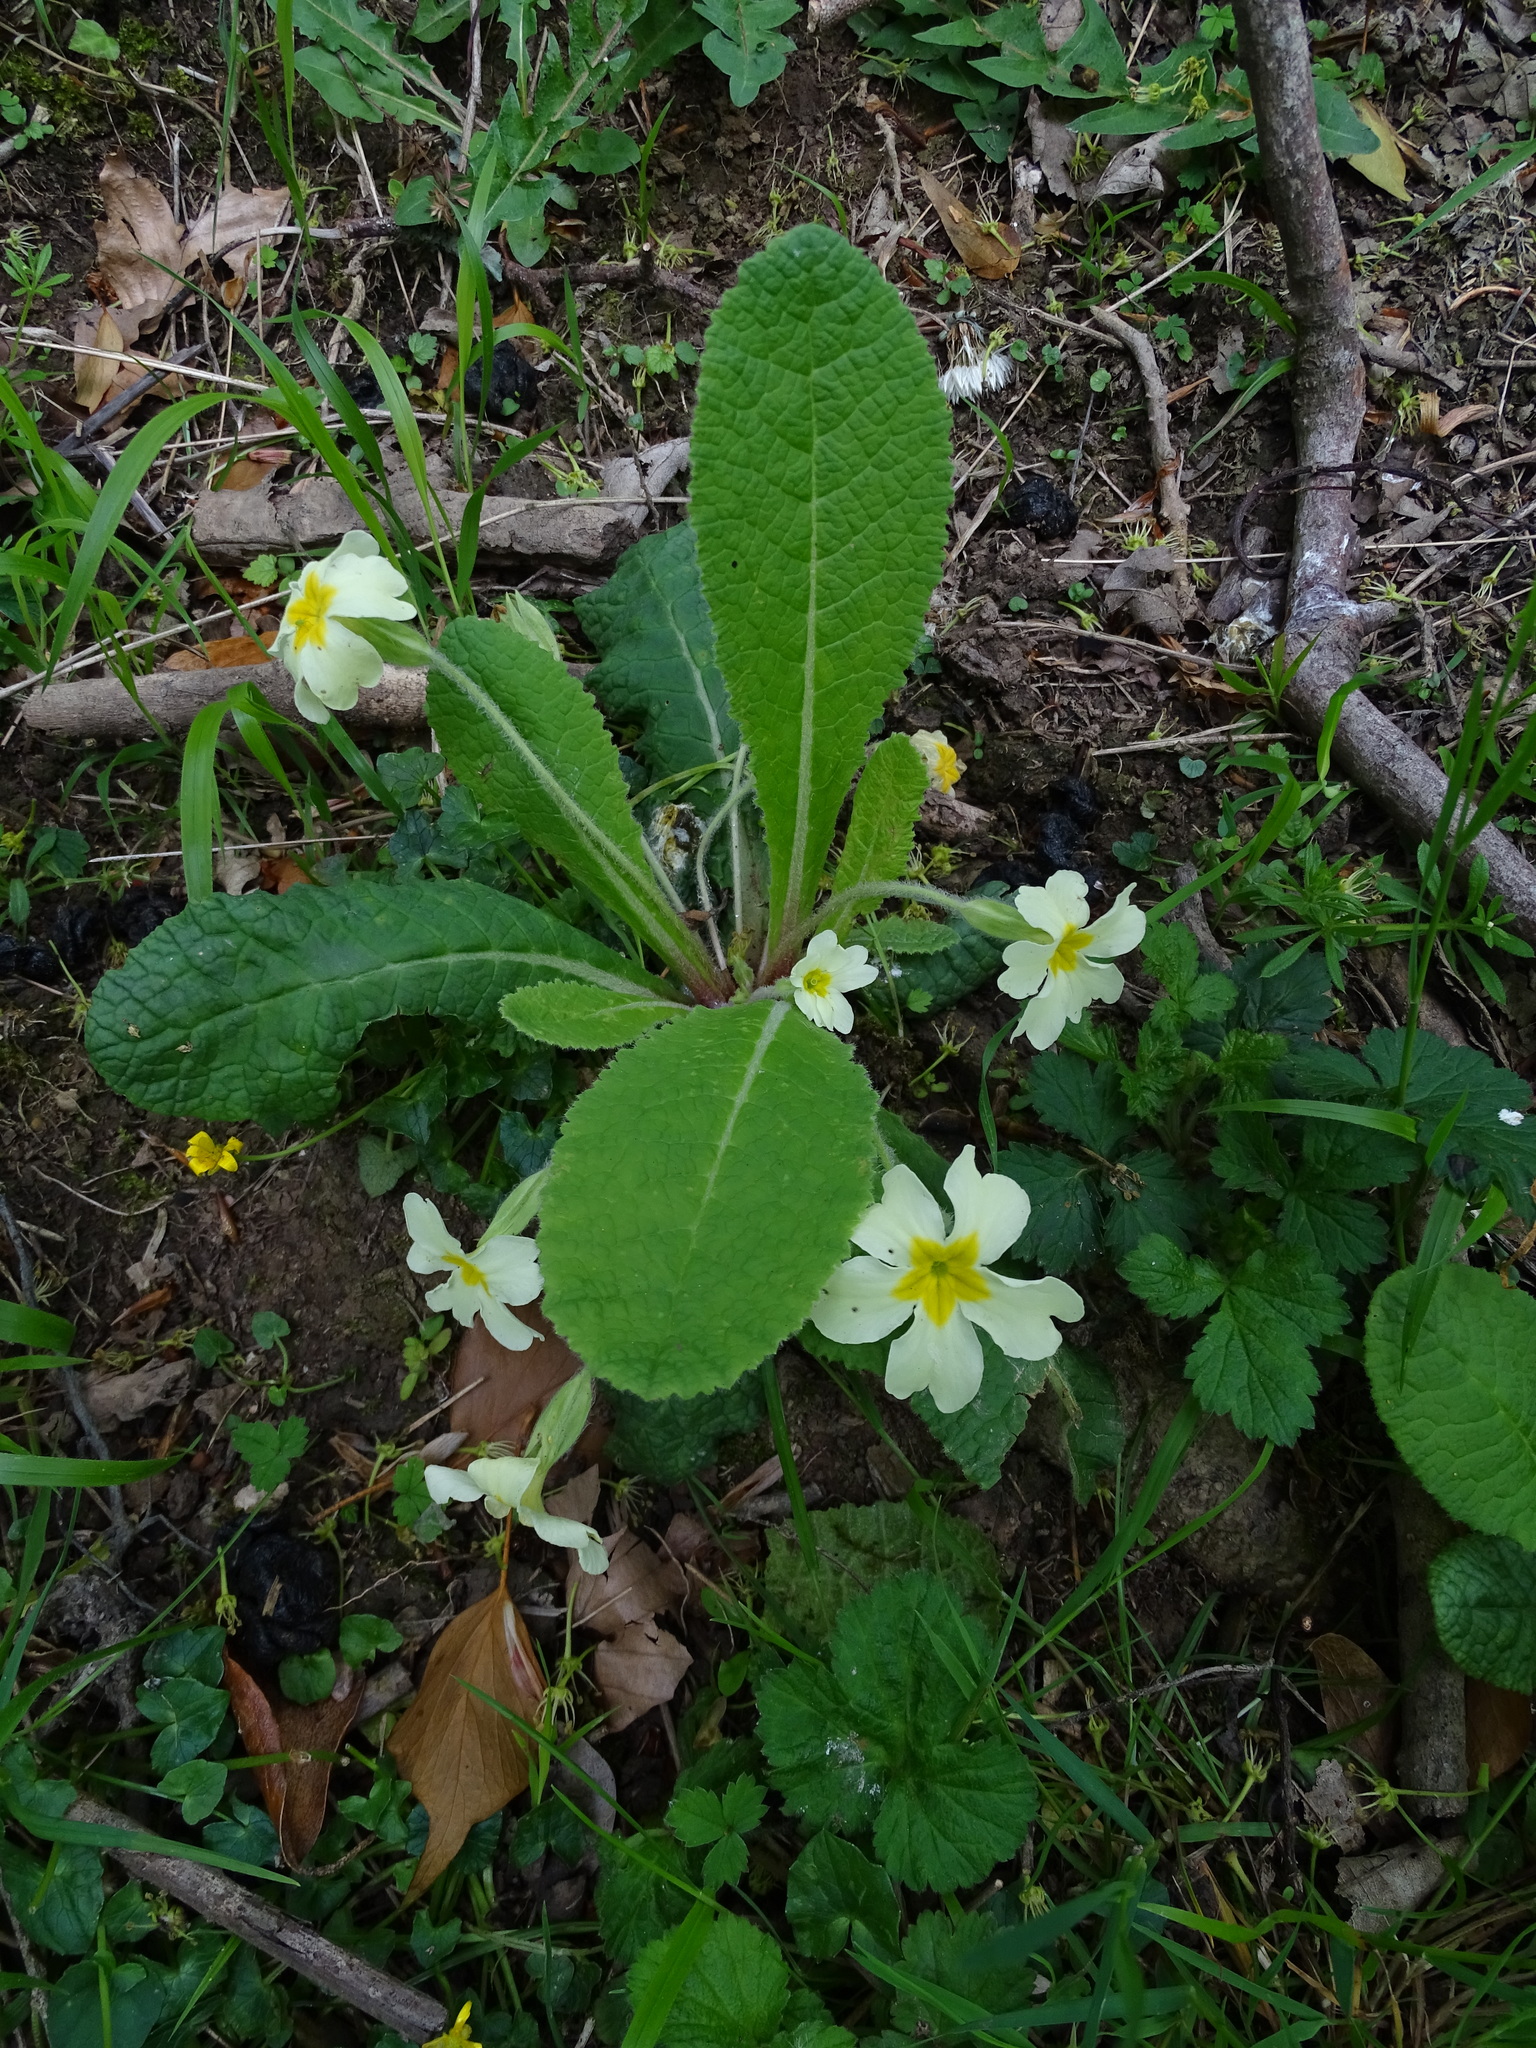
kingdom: Plantae
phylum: Tracheophyta
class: Magnoliopsida
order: Ericales
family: Primulaceae
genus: Primula
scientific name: Primula vulgaris
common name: Primrose
